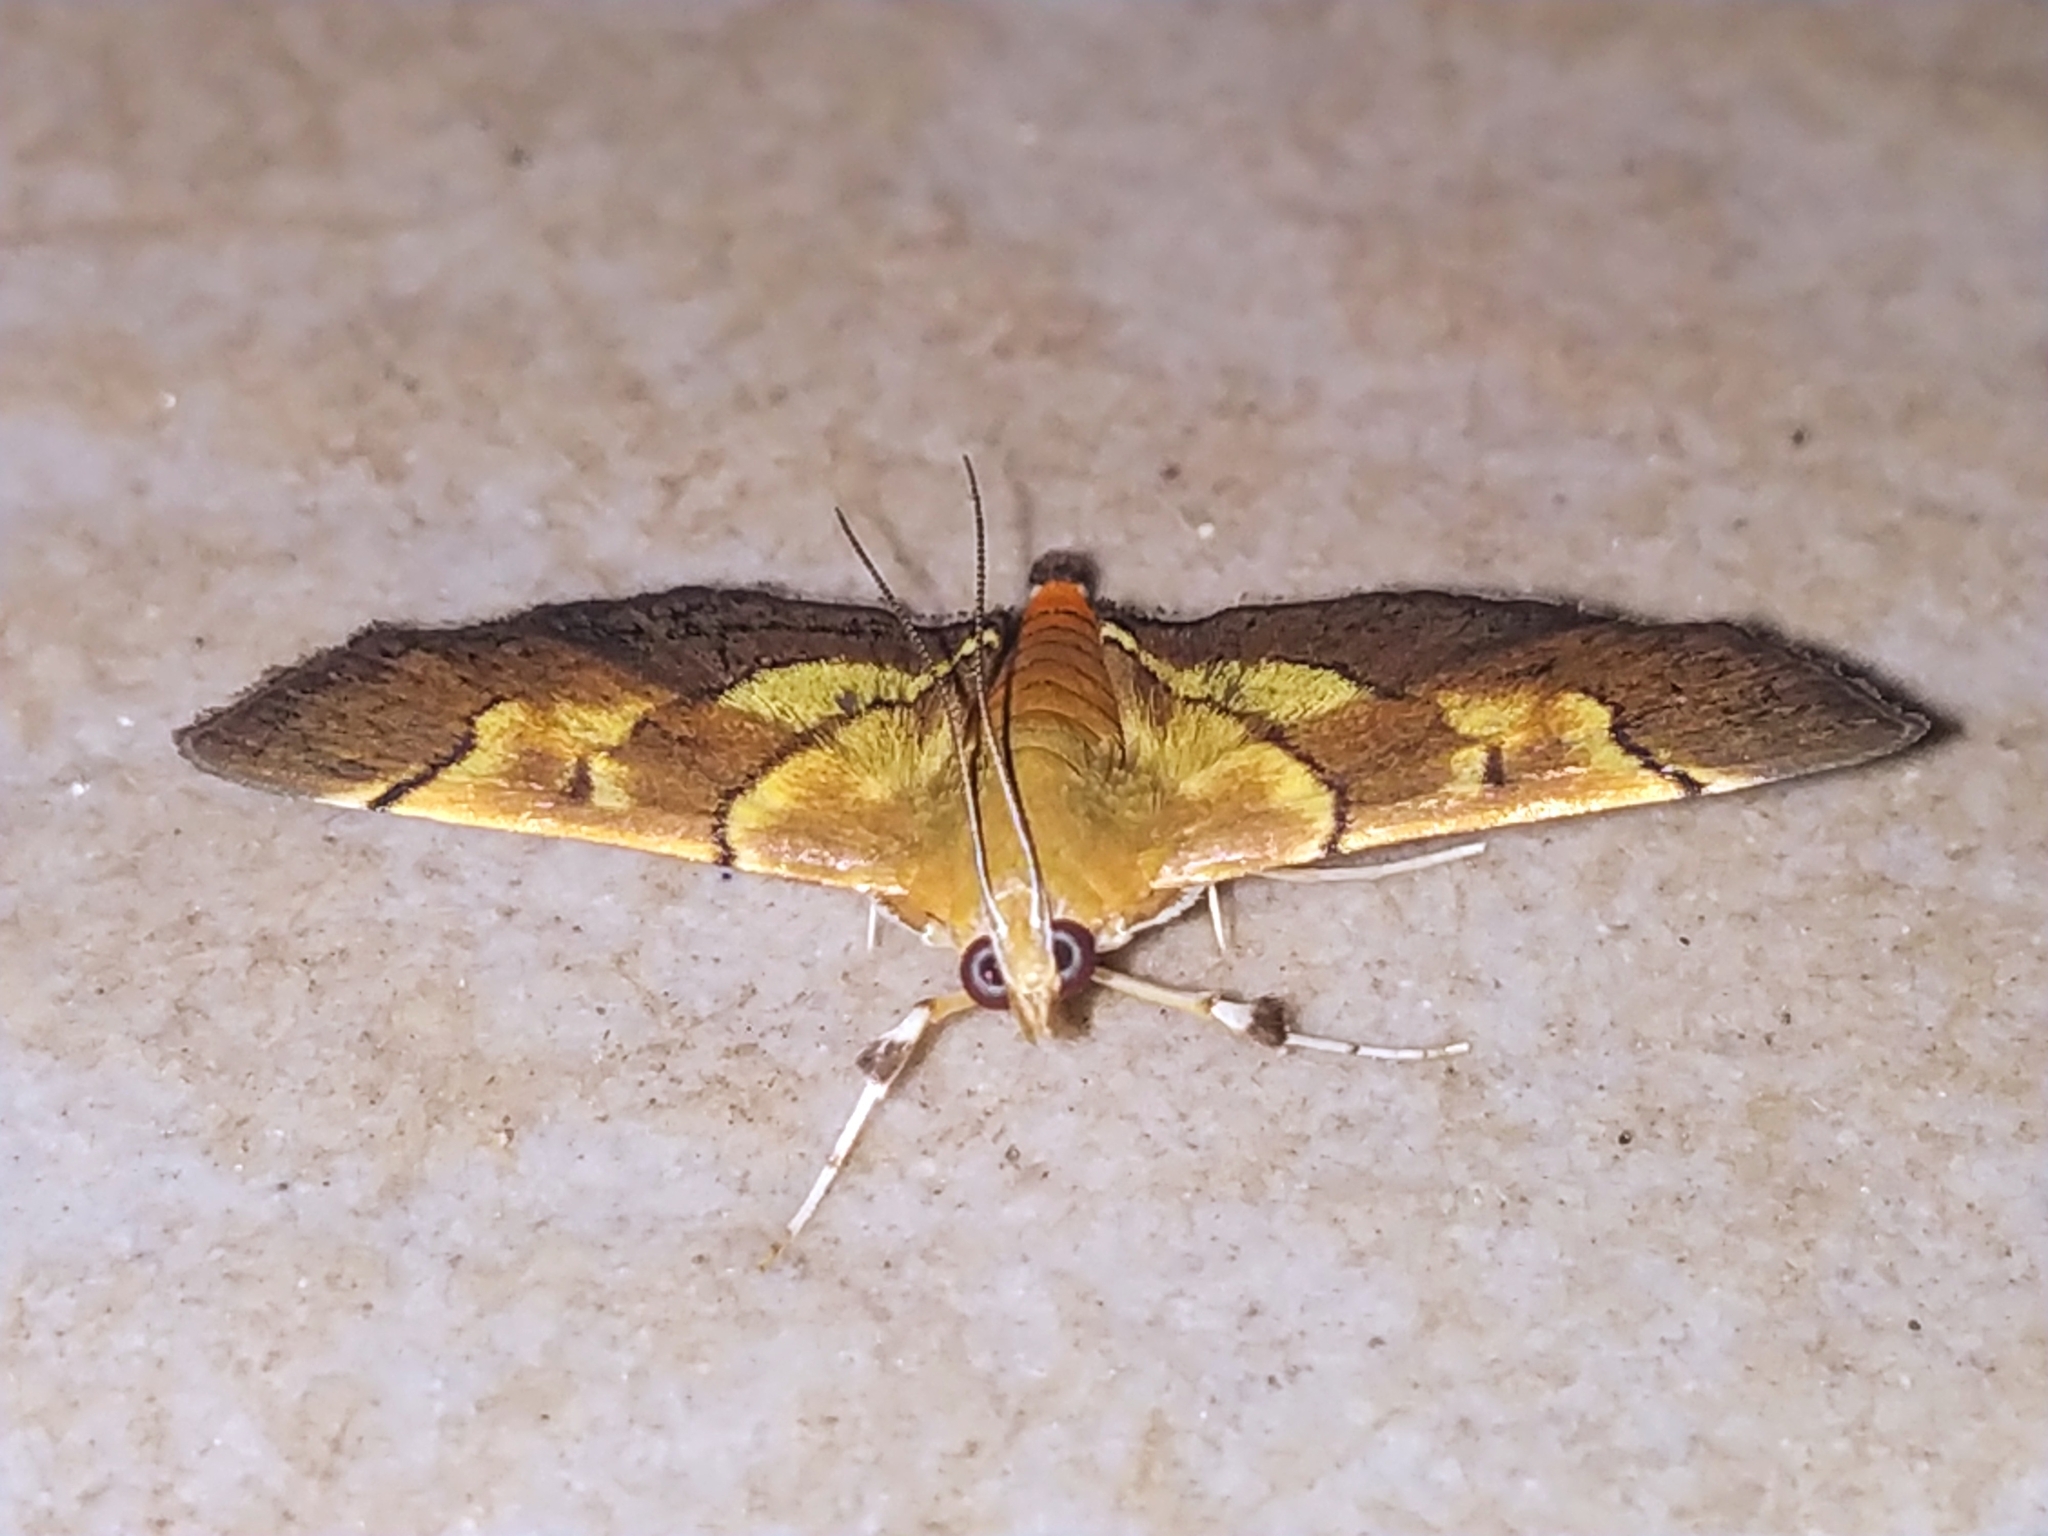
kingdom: Animalia
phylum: Arthropoda
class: Insecta
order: Lepidoptera
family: Crambidae
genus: Syngamia
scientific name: Syngamia latimarginalis
